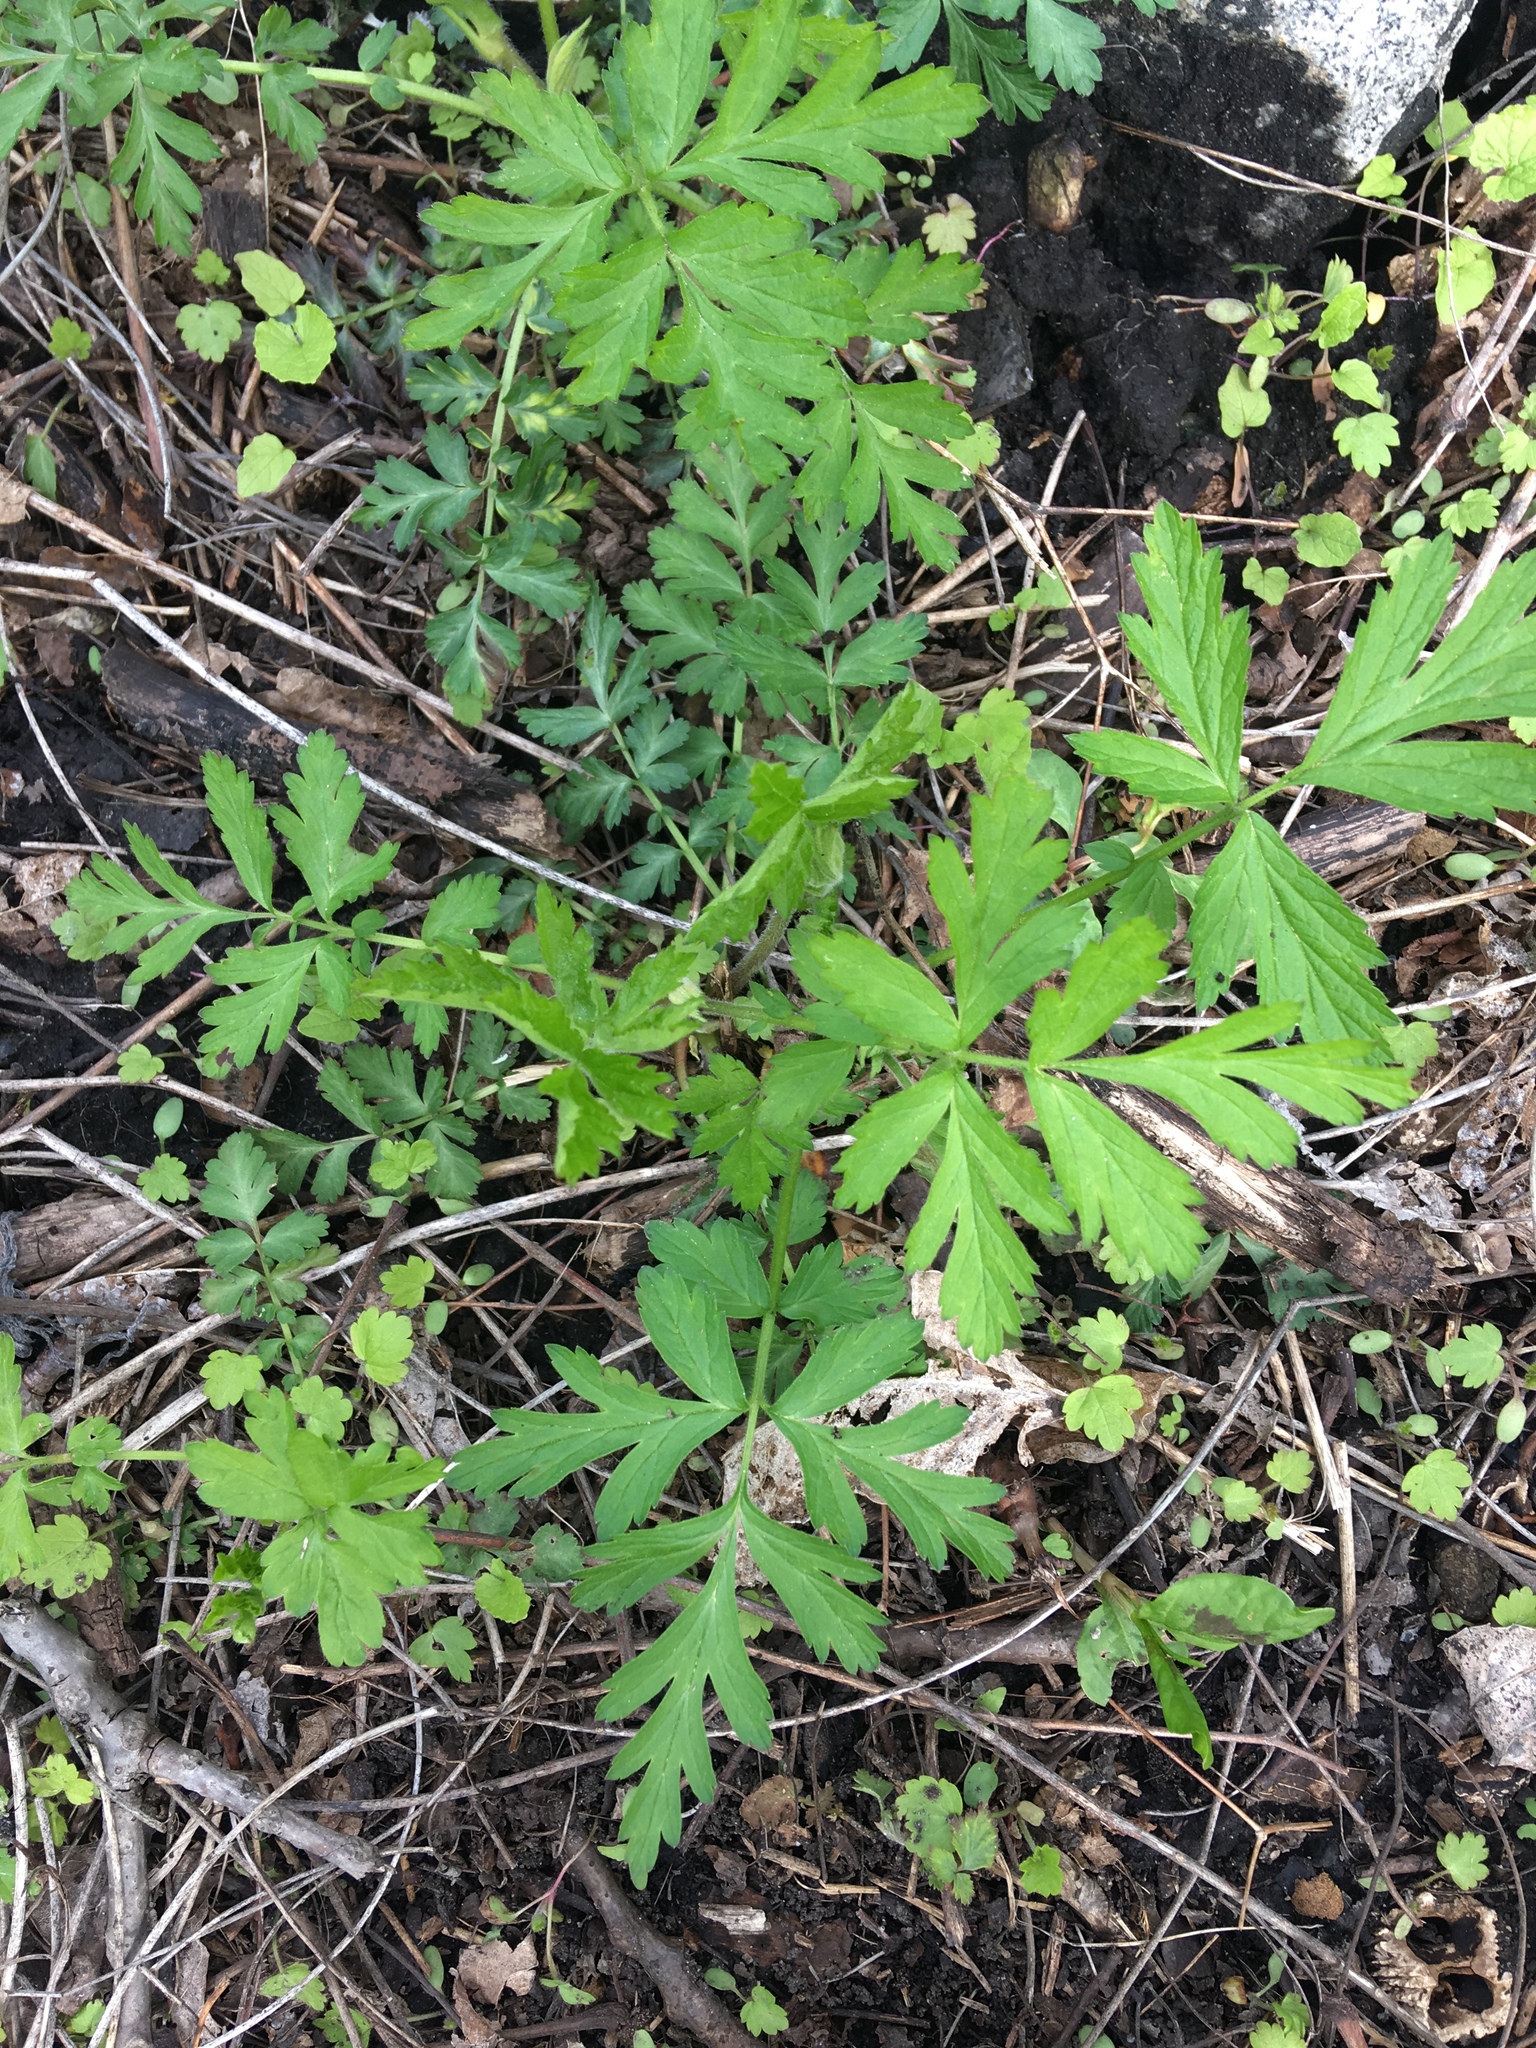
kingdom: Plantae
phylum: Tracheophyta
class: Magnoliopsida
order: Rosales
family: Rosaceae
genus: Geum
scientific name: Geum canadense
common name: White avens
